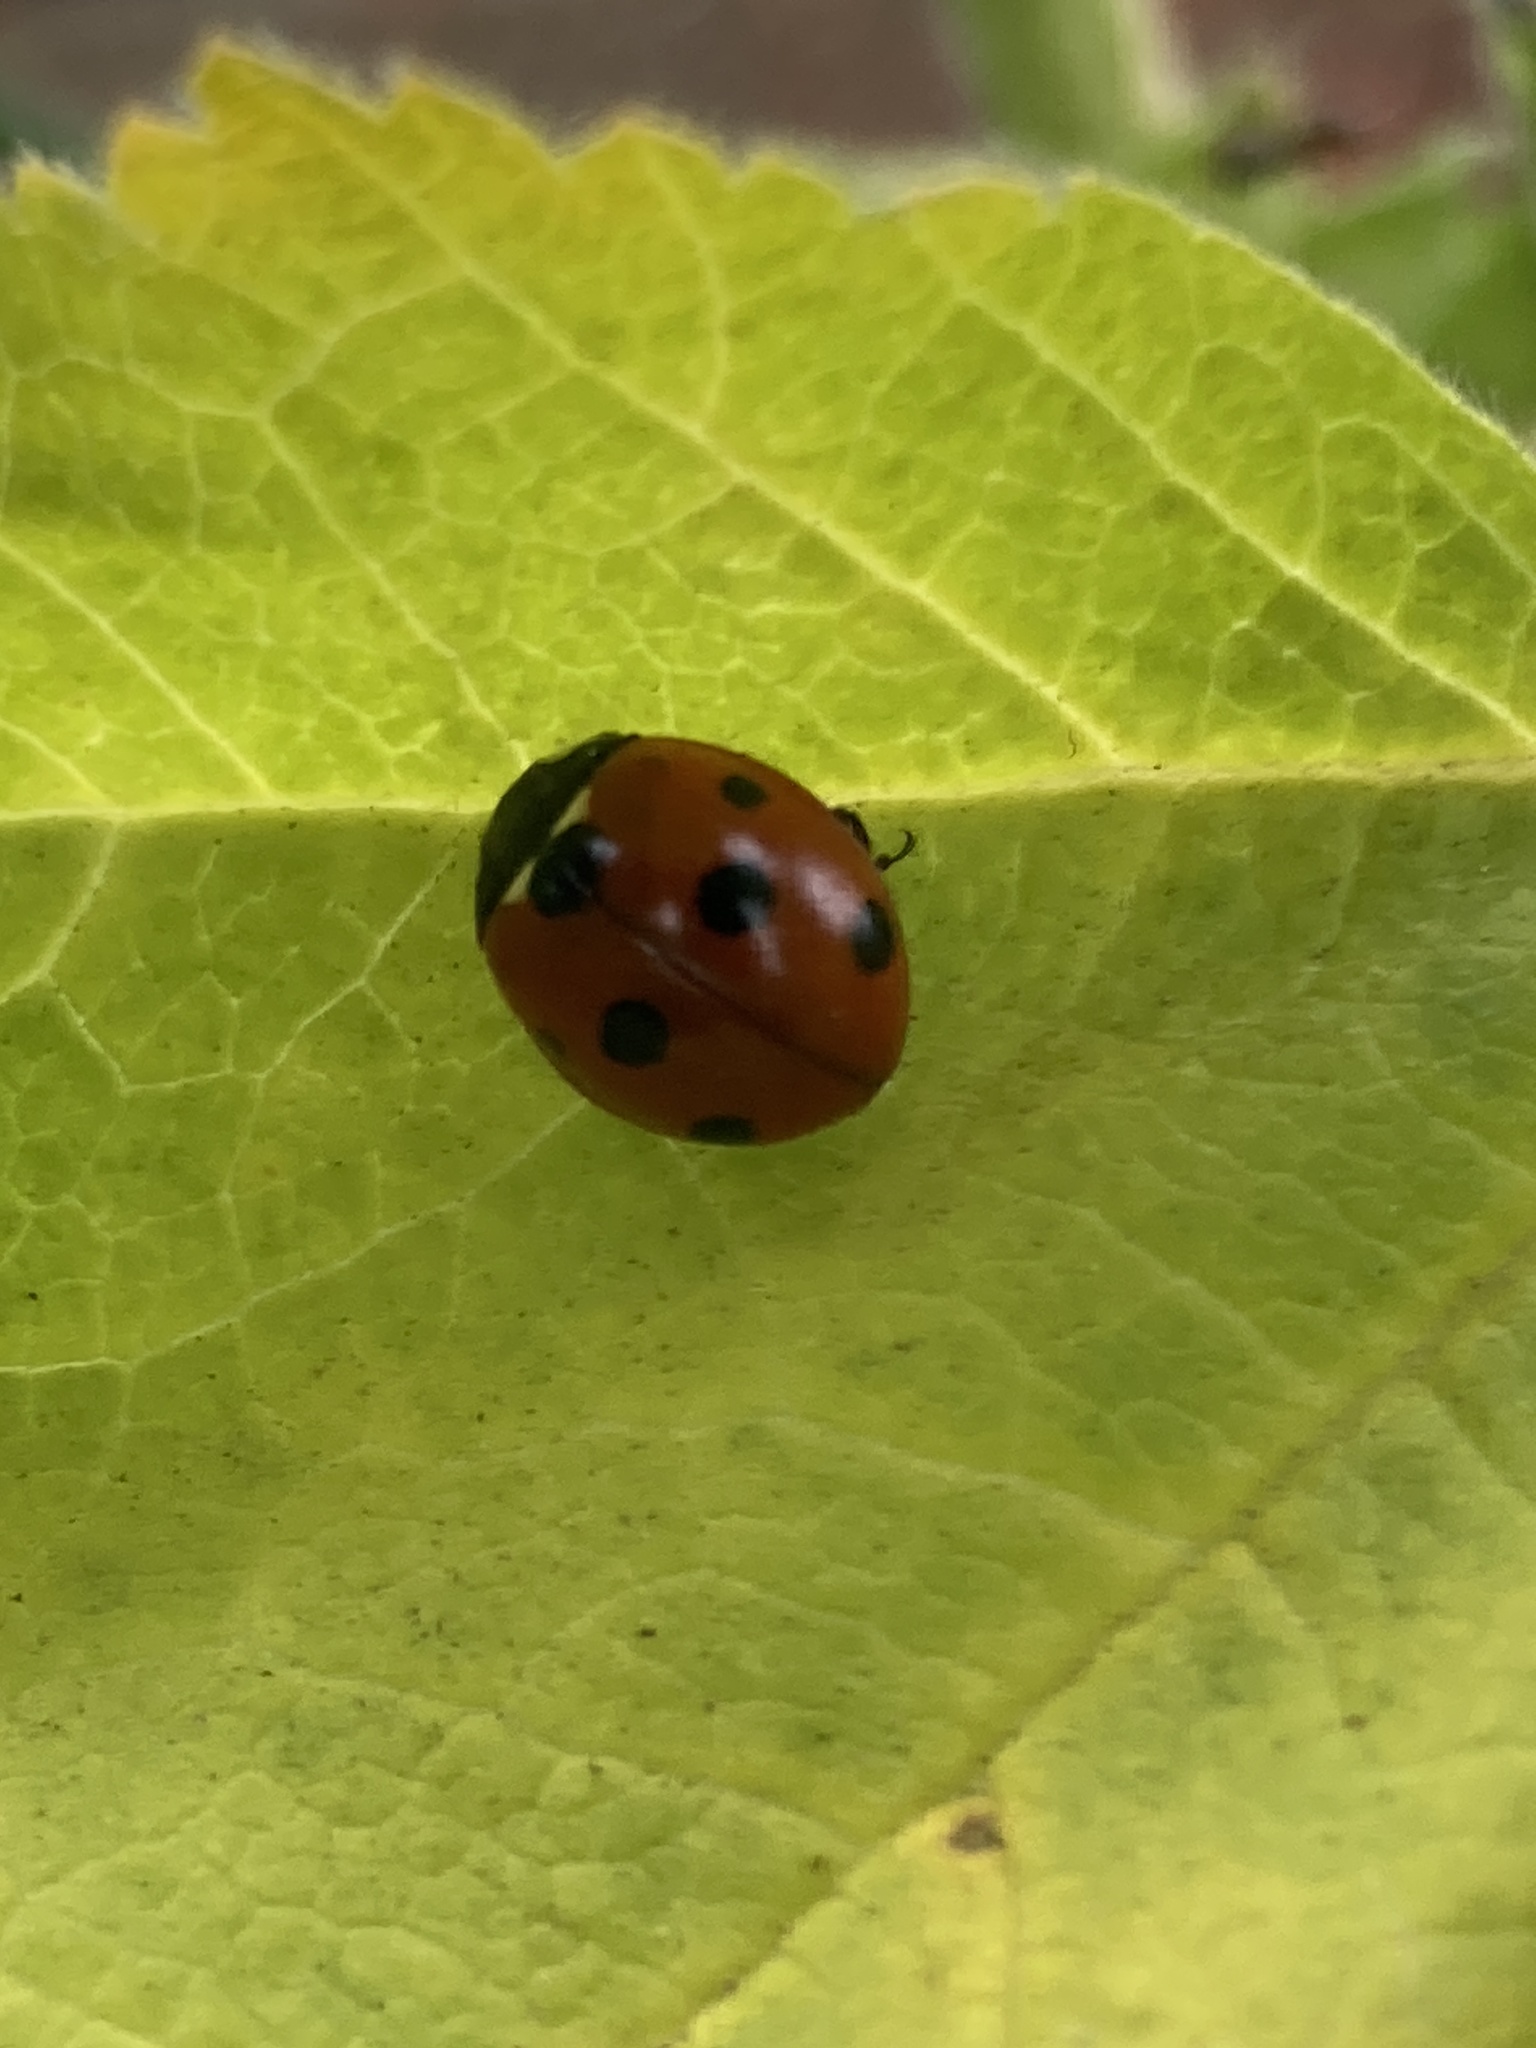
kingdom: Animalia
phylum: Arthropoda
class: Insecta
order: Coleoptera
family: Coccinellidae
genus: Coccinella
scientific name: Coccinella septempunctata
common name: Sevenspotted lady beetle
